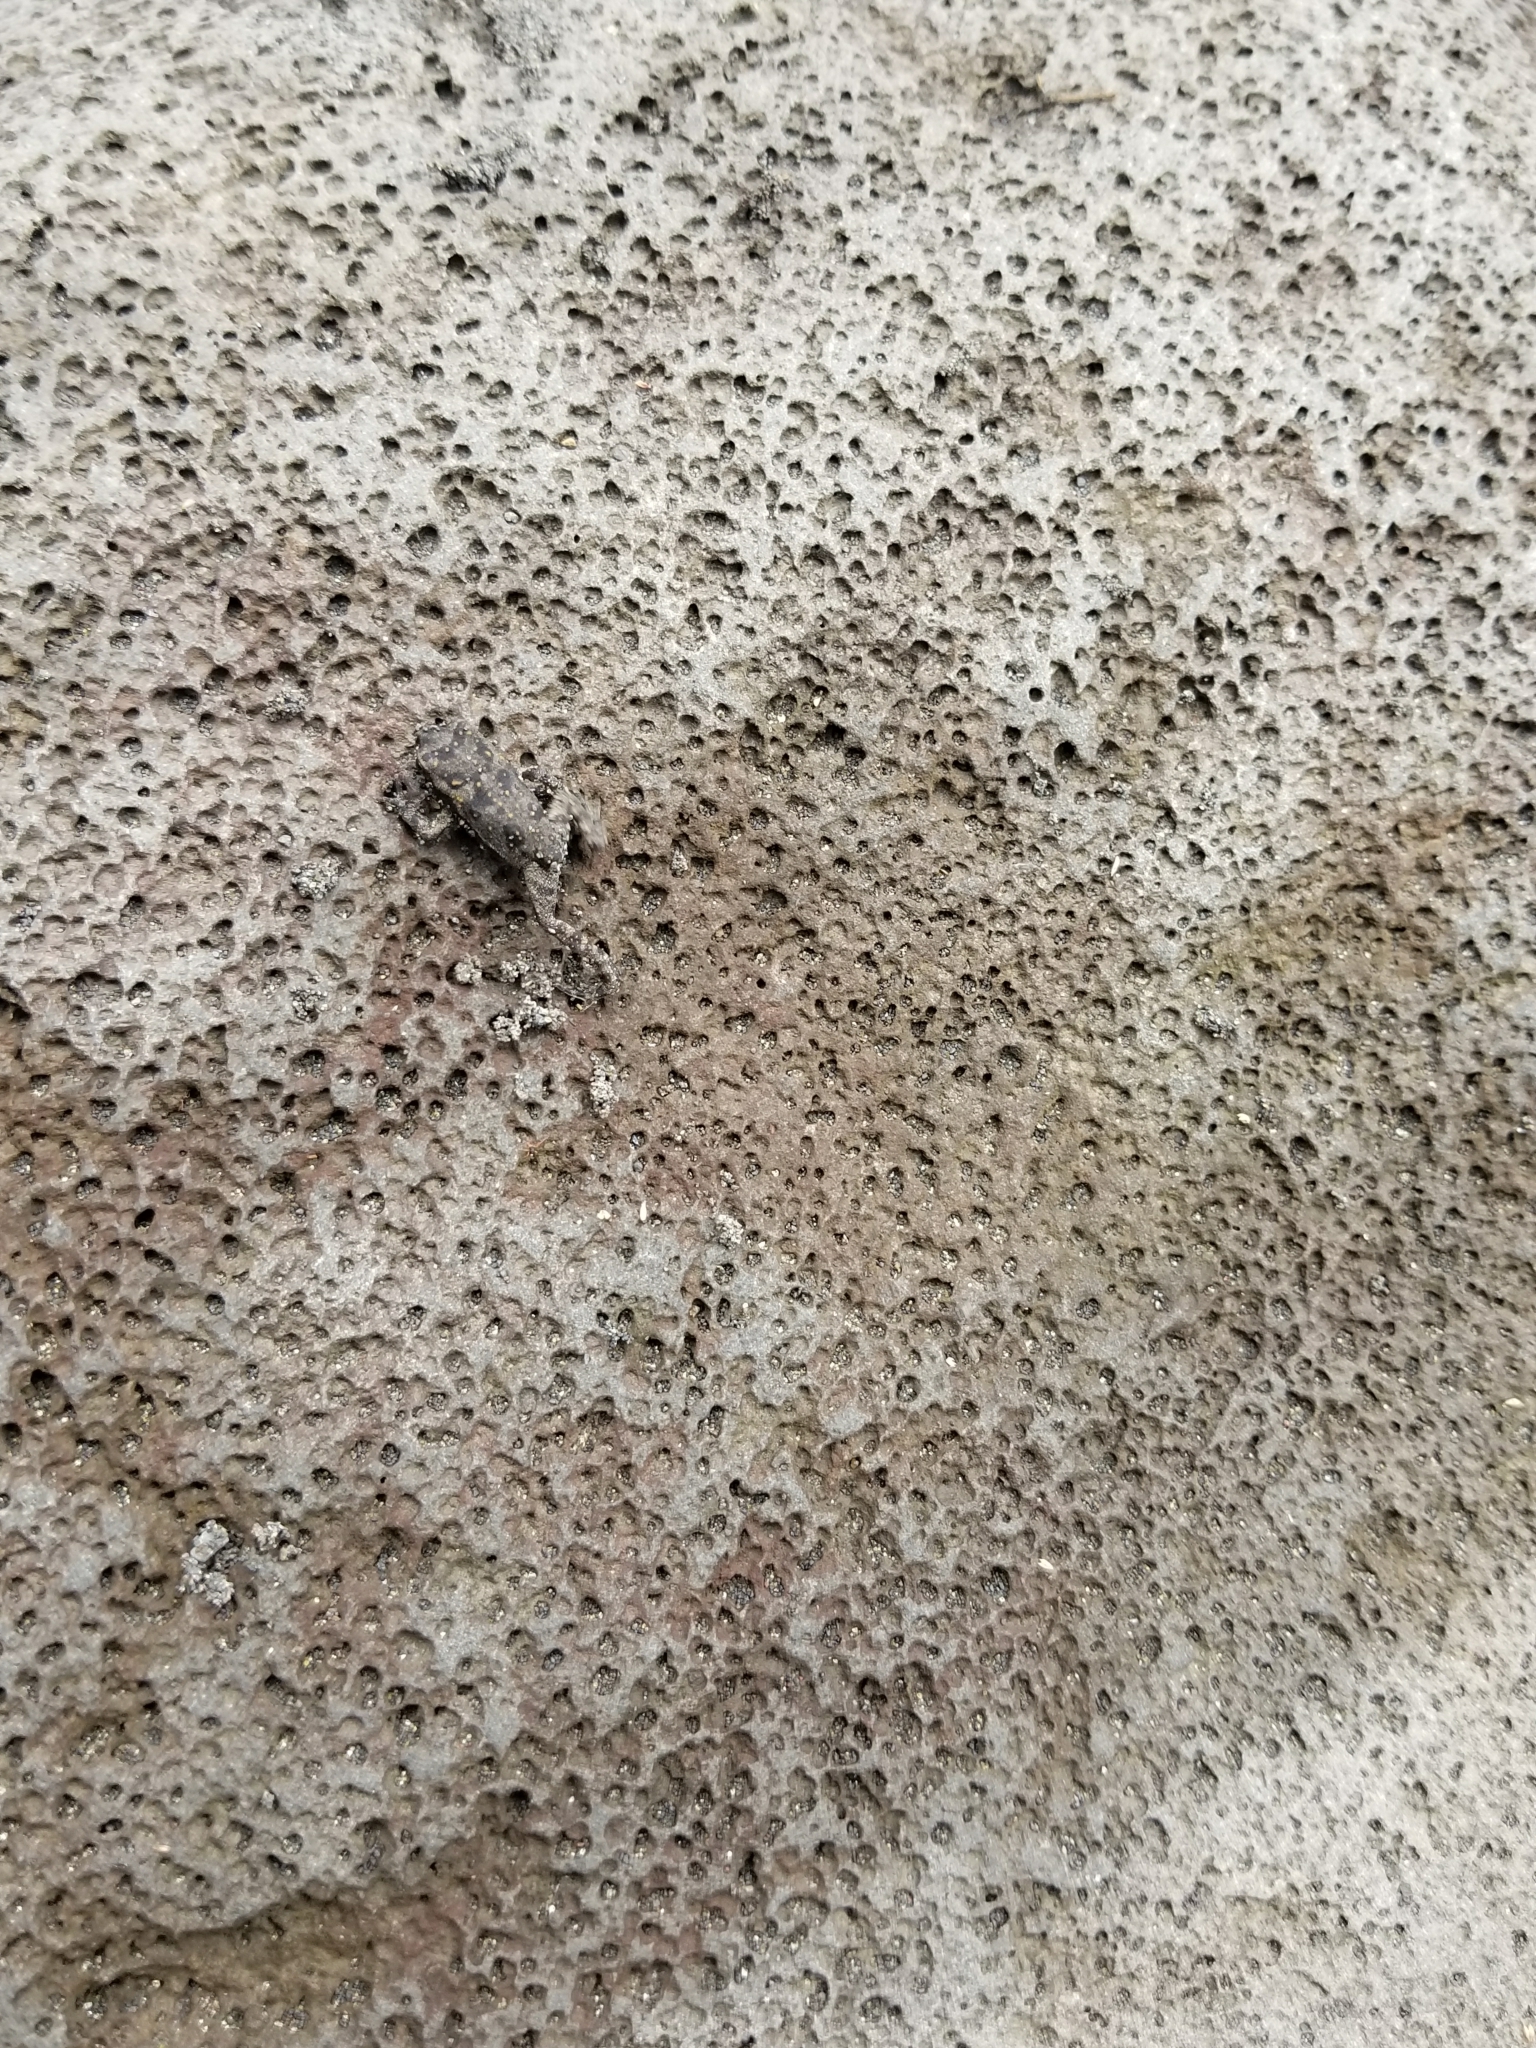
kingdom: Animalia
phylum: Chordata
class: Amphibia
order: Anura
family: Bufonidae
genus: Rhinella
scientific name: Rhinella marina
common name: Cane toad
